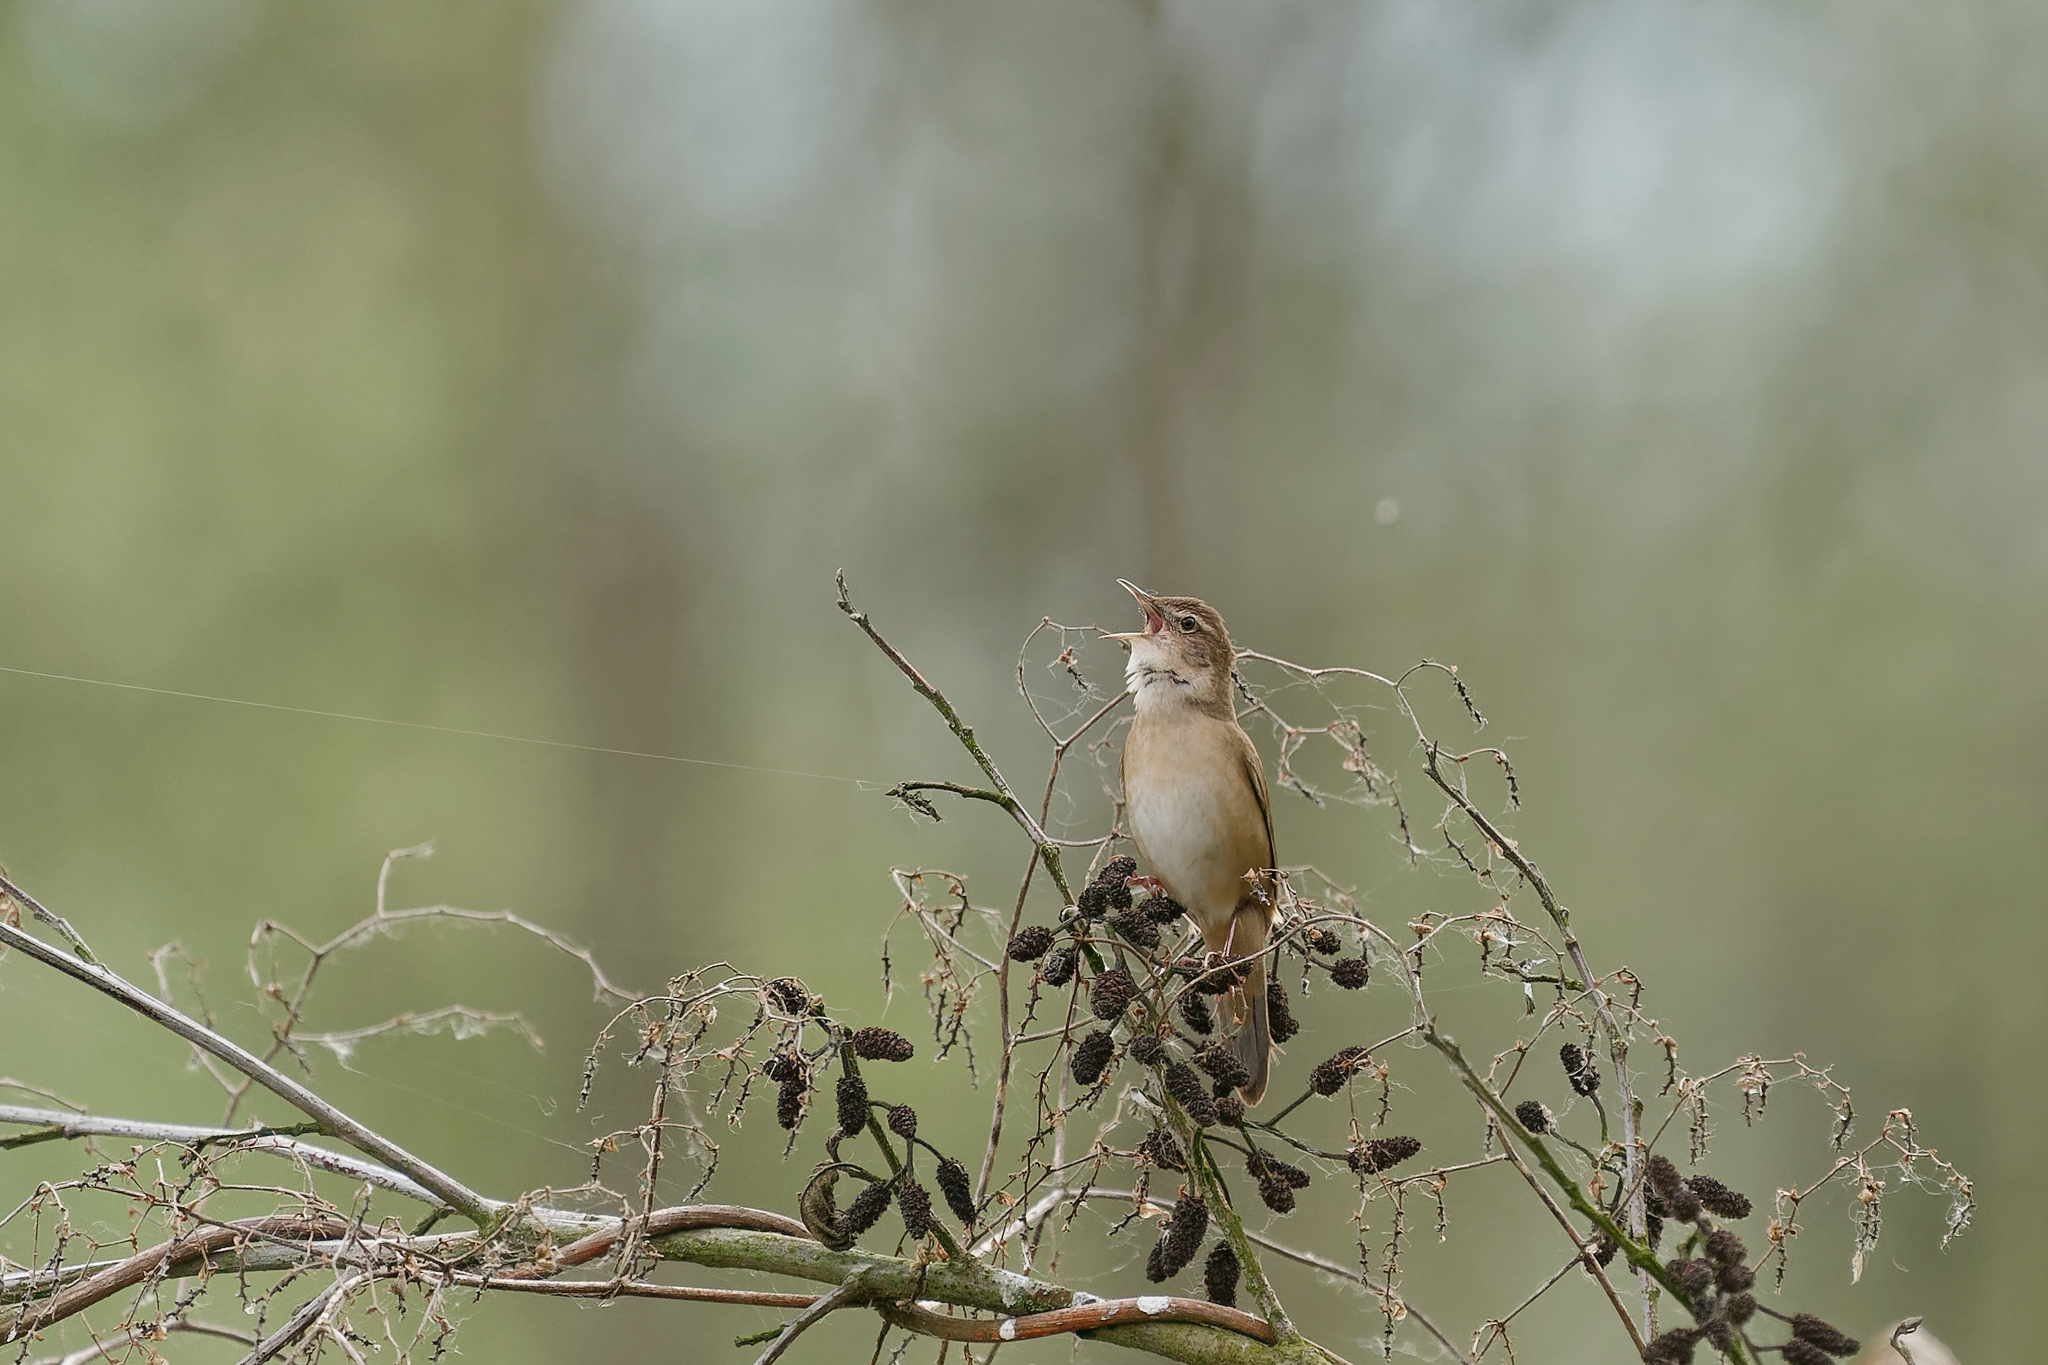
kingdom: Animalia
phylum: Chordata
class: Aves
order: Passeriformes
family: Locustellidae
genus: Locustella
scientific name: Locustella luscinioides
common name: Savi's warbler
